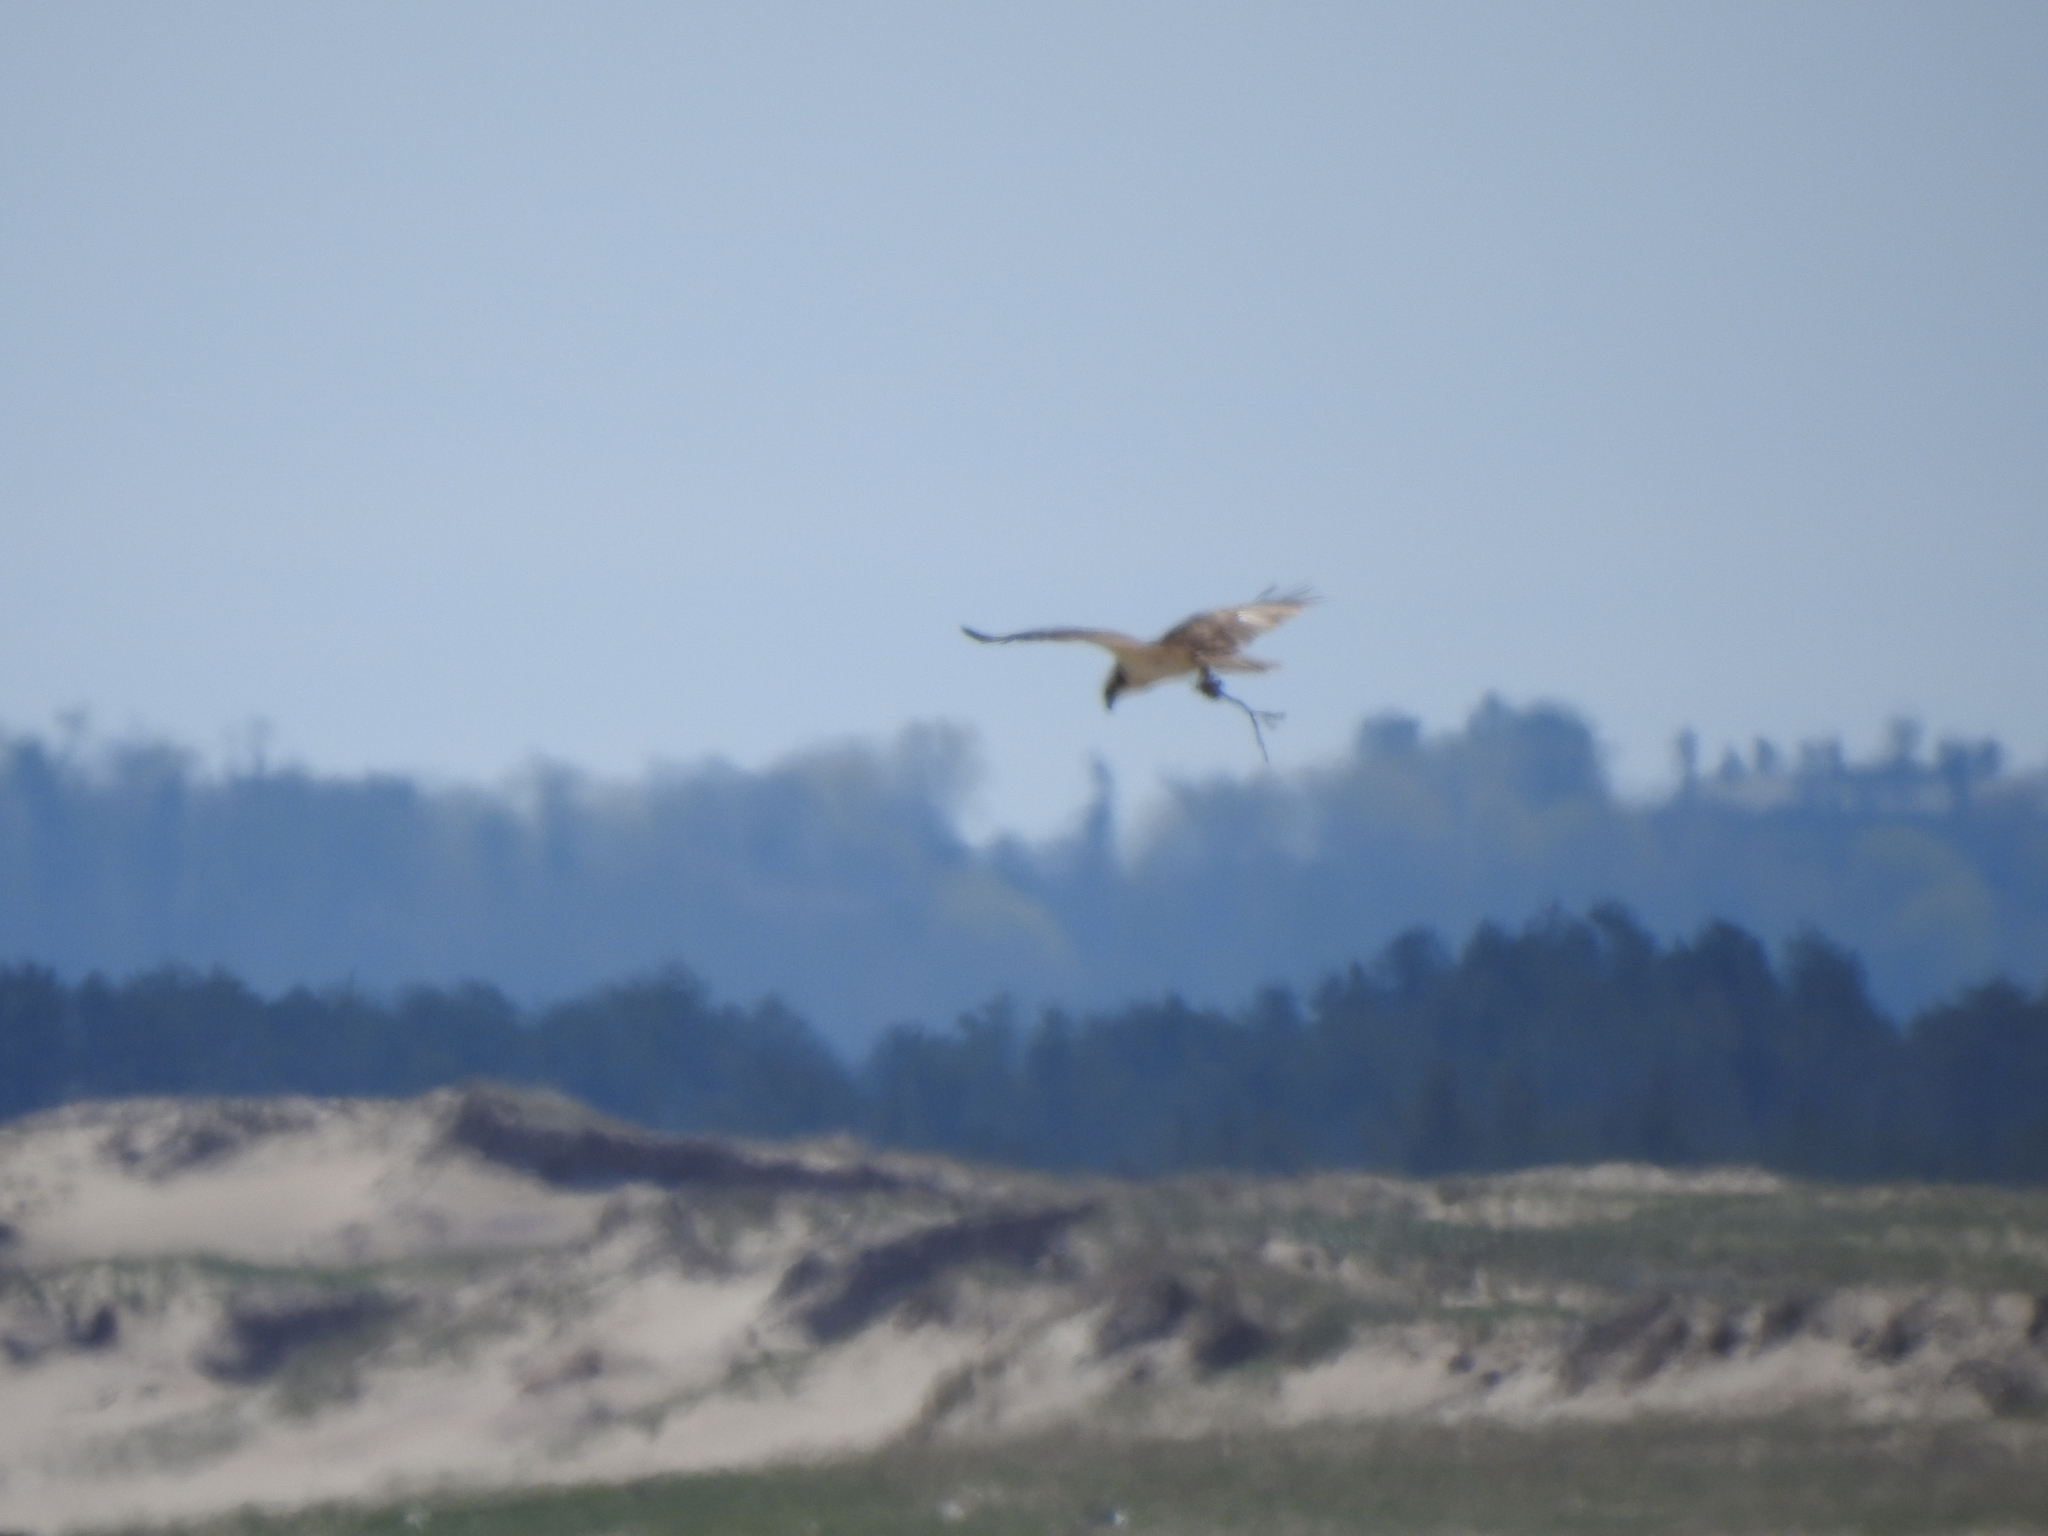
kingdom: Animalia
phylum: Chordata
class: Aves
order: Accipitriformes
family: Pandionidae
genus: Pandion
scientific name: Pandion haliaetus
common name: Osprey
